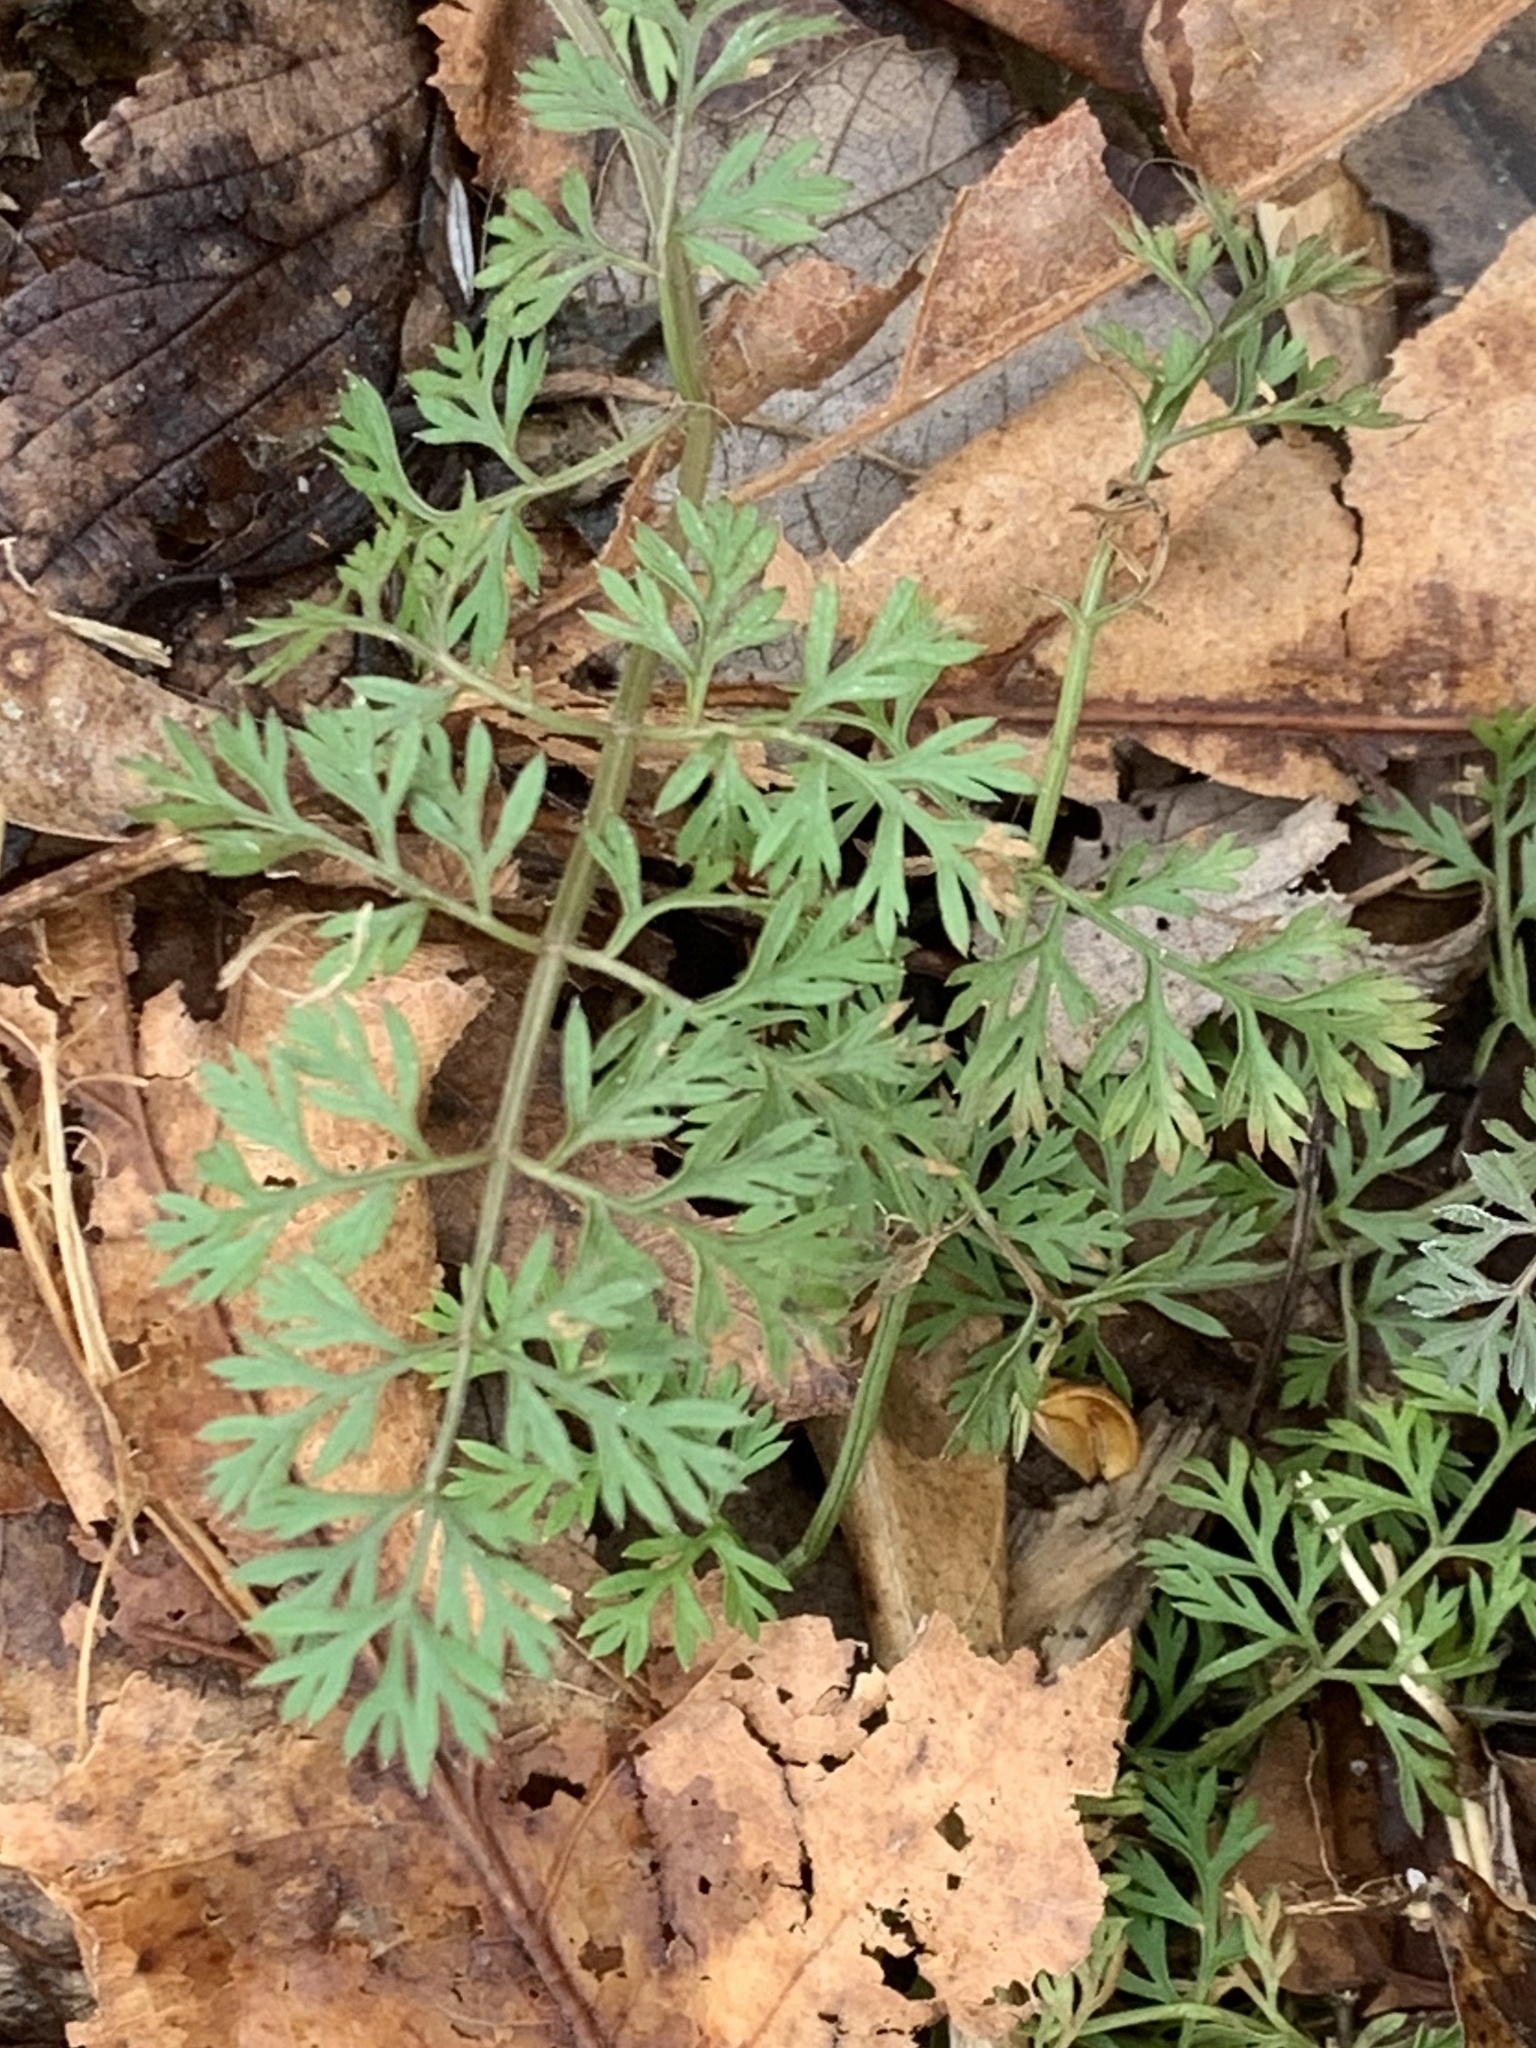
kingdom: Plantae
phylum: Tracheophyta
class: Magnoliopsida
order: Apiales
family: Apiaceae
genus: Daucus
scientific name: Daucus carota
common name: Wild carrot
